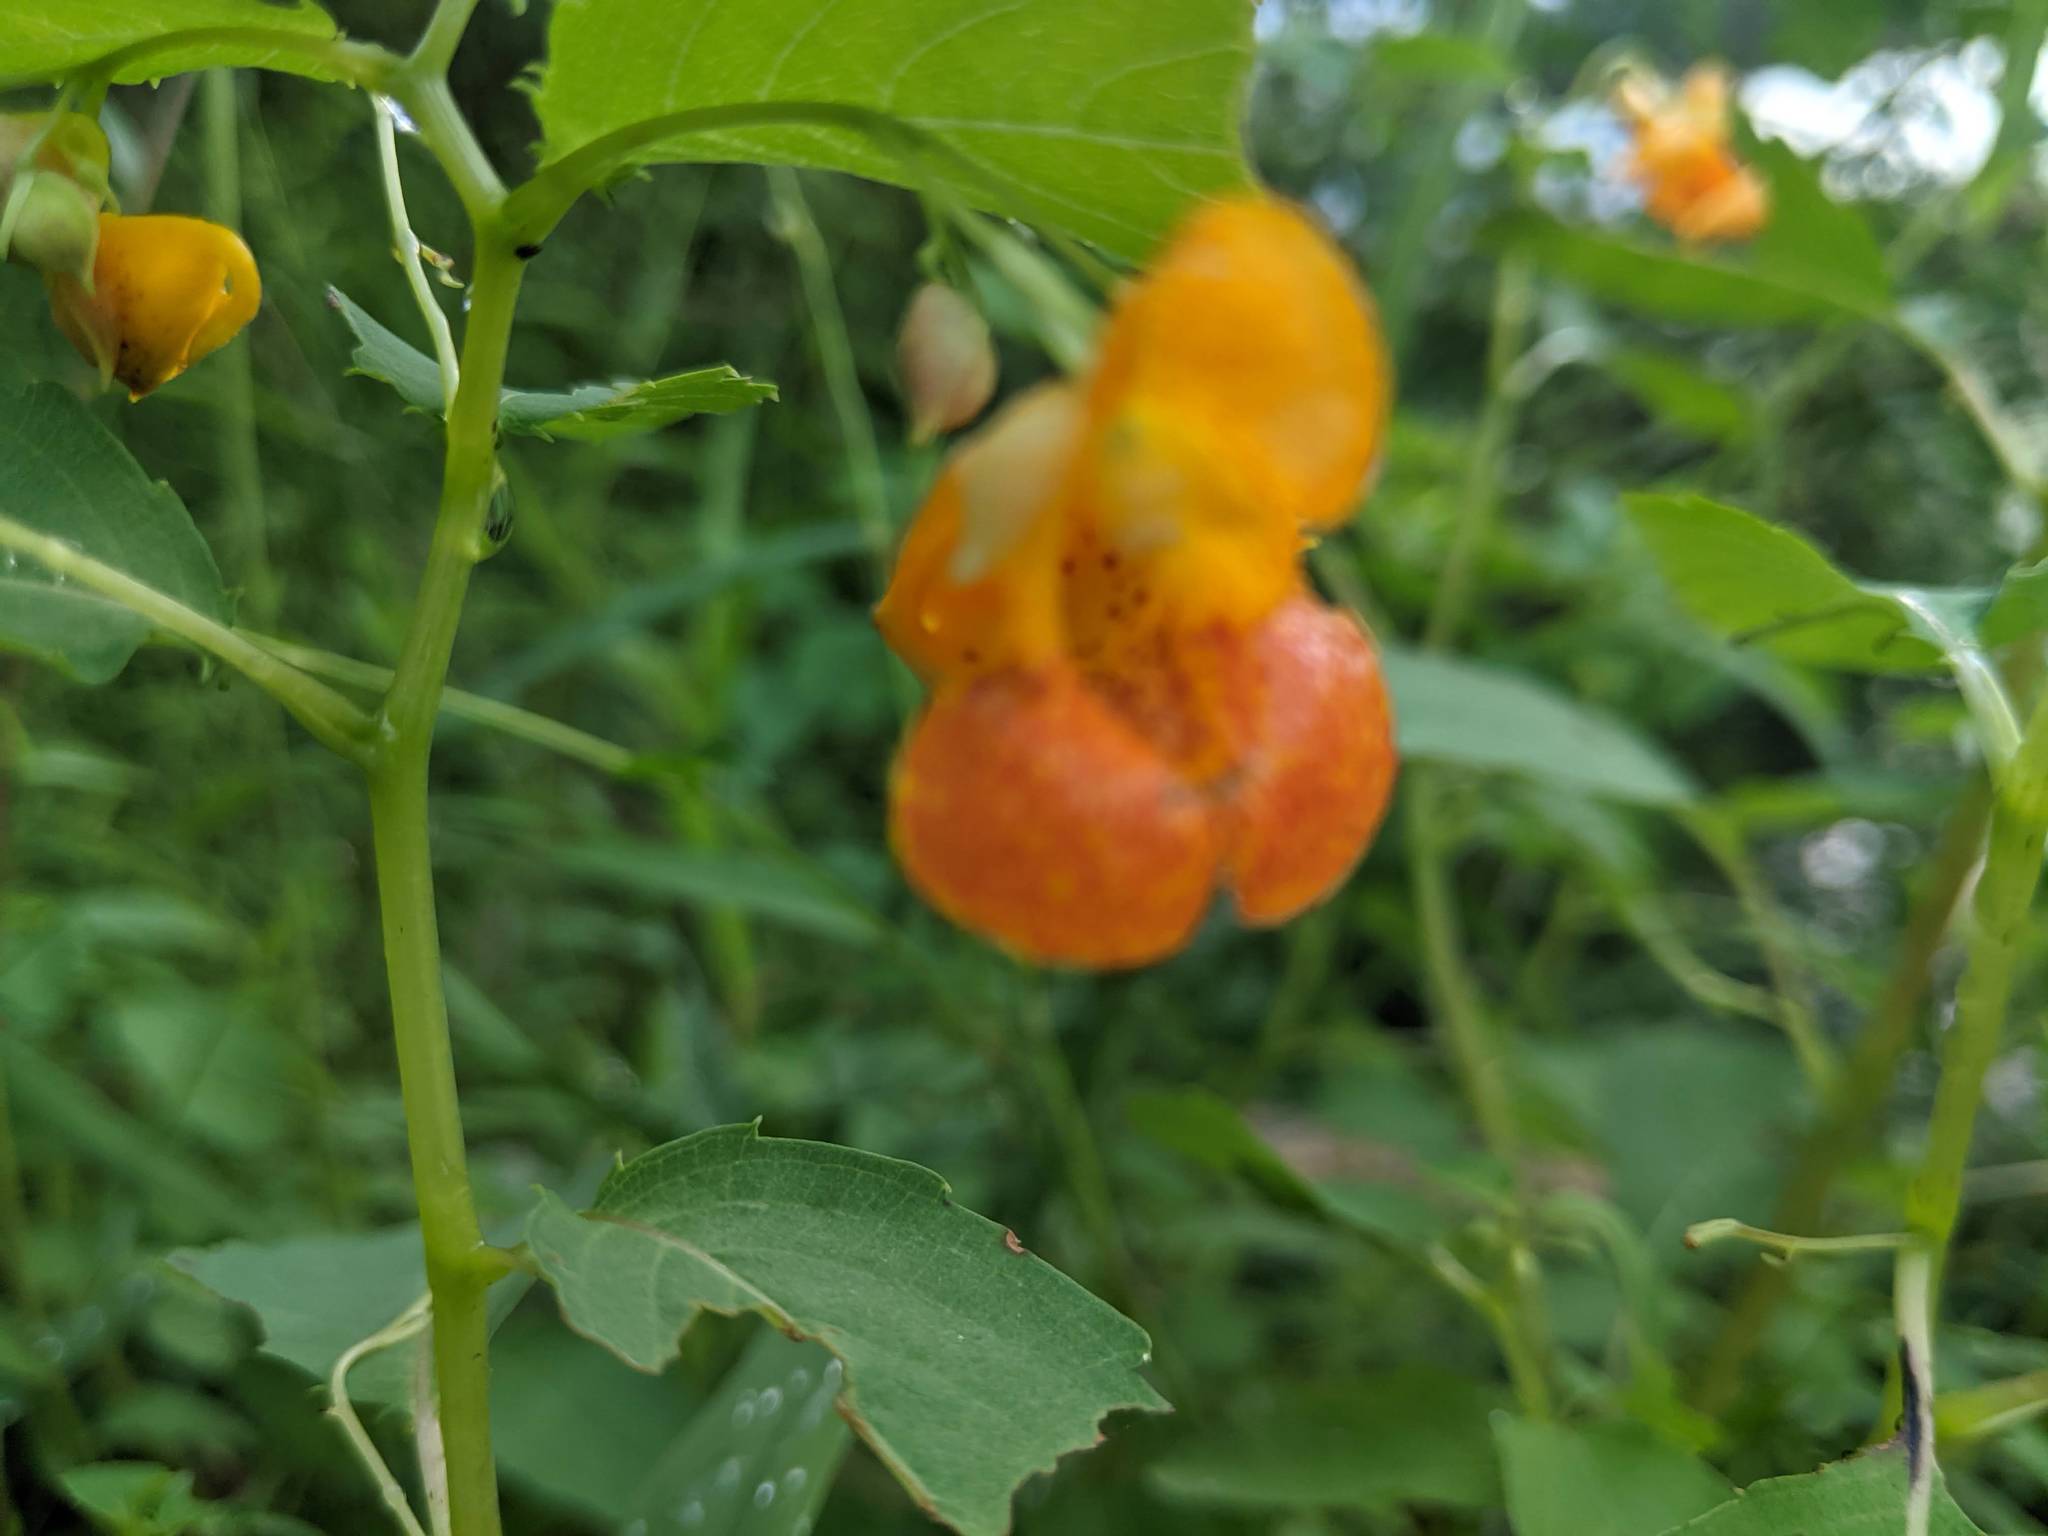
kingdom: Plantae
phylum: Tracheophyta
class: Magnoliopsida
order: Ericales
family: Balsaminaceae
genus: Impatiens
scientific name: Impatiens capensis
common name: Orange balsam
